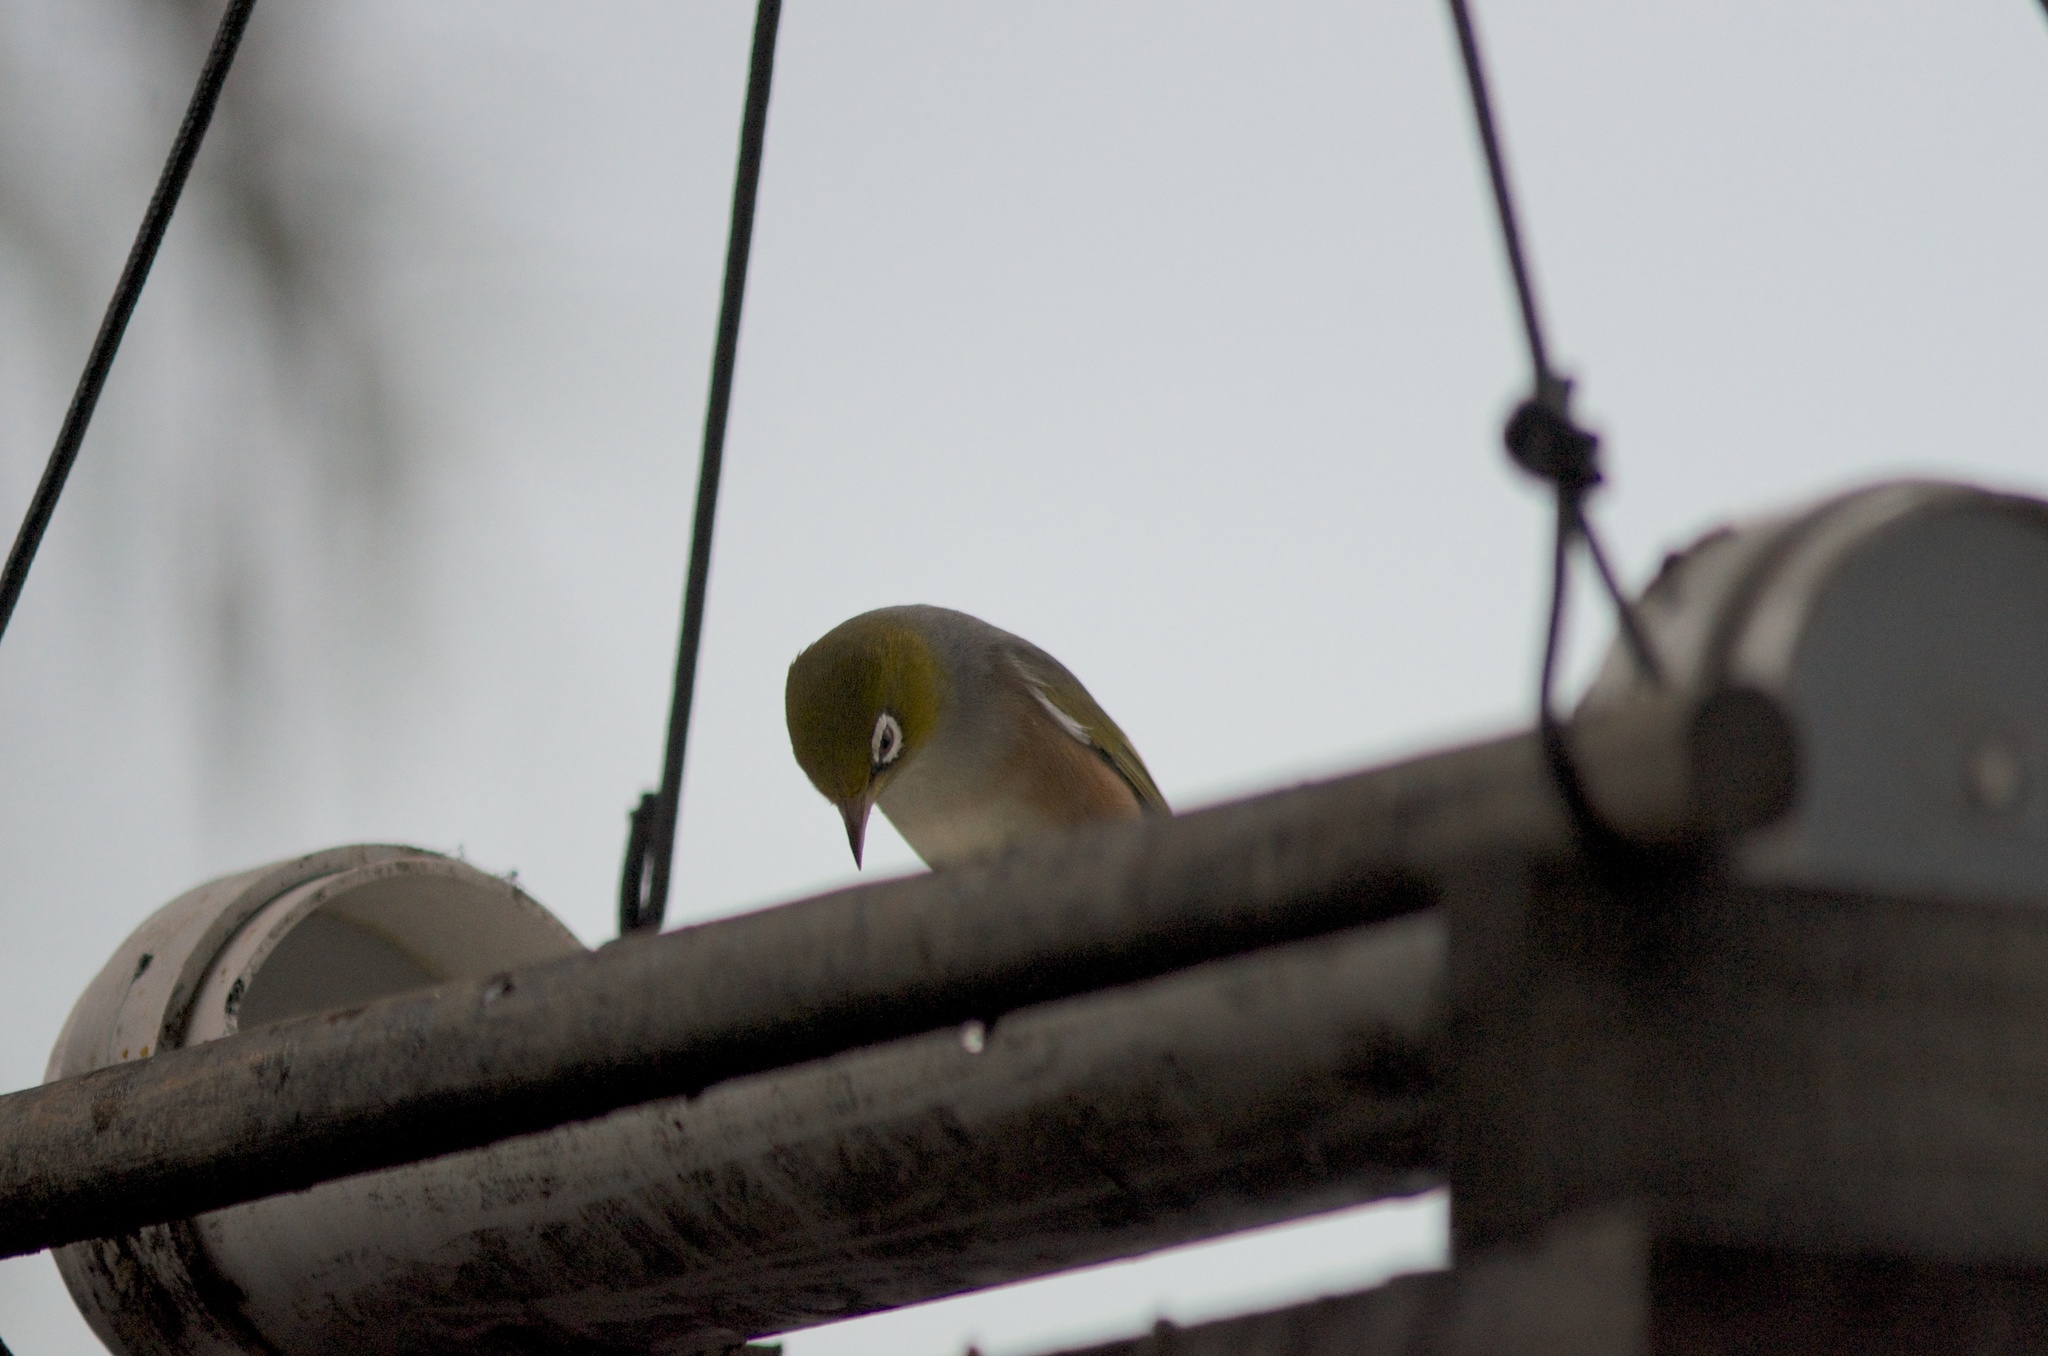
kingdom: Animalia
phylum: Chordata
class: Aves
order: Passeriformes
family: Zosteropidae
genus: Zosterops
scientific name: Zosterops lateralis
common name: Silvereye
